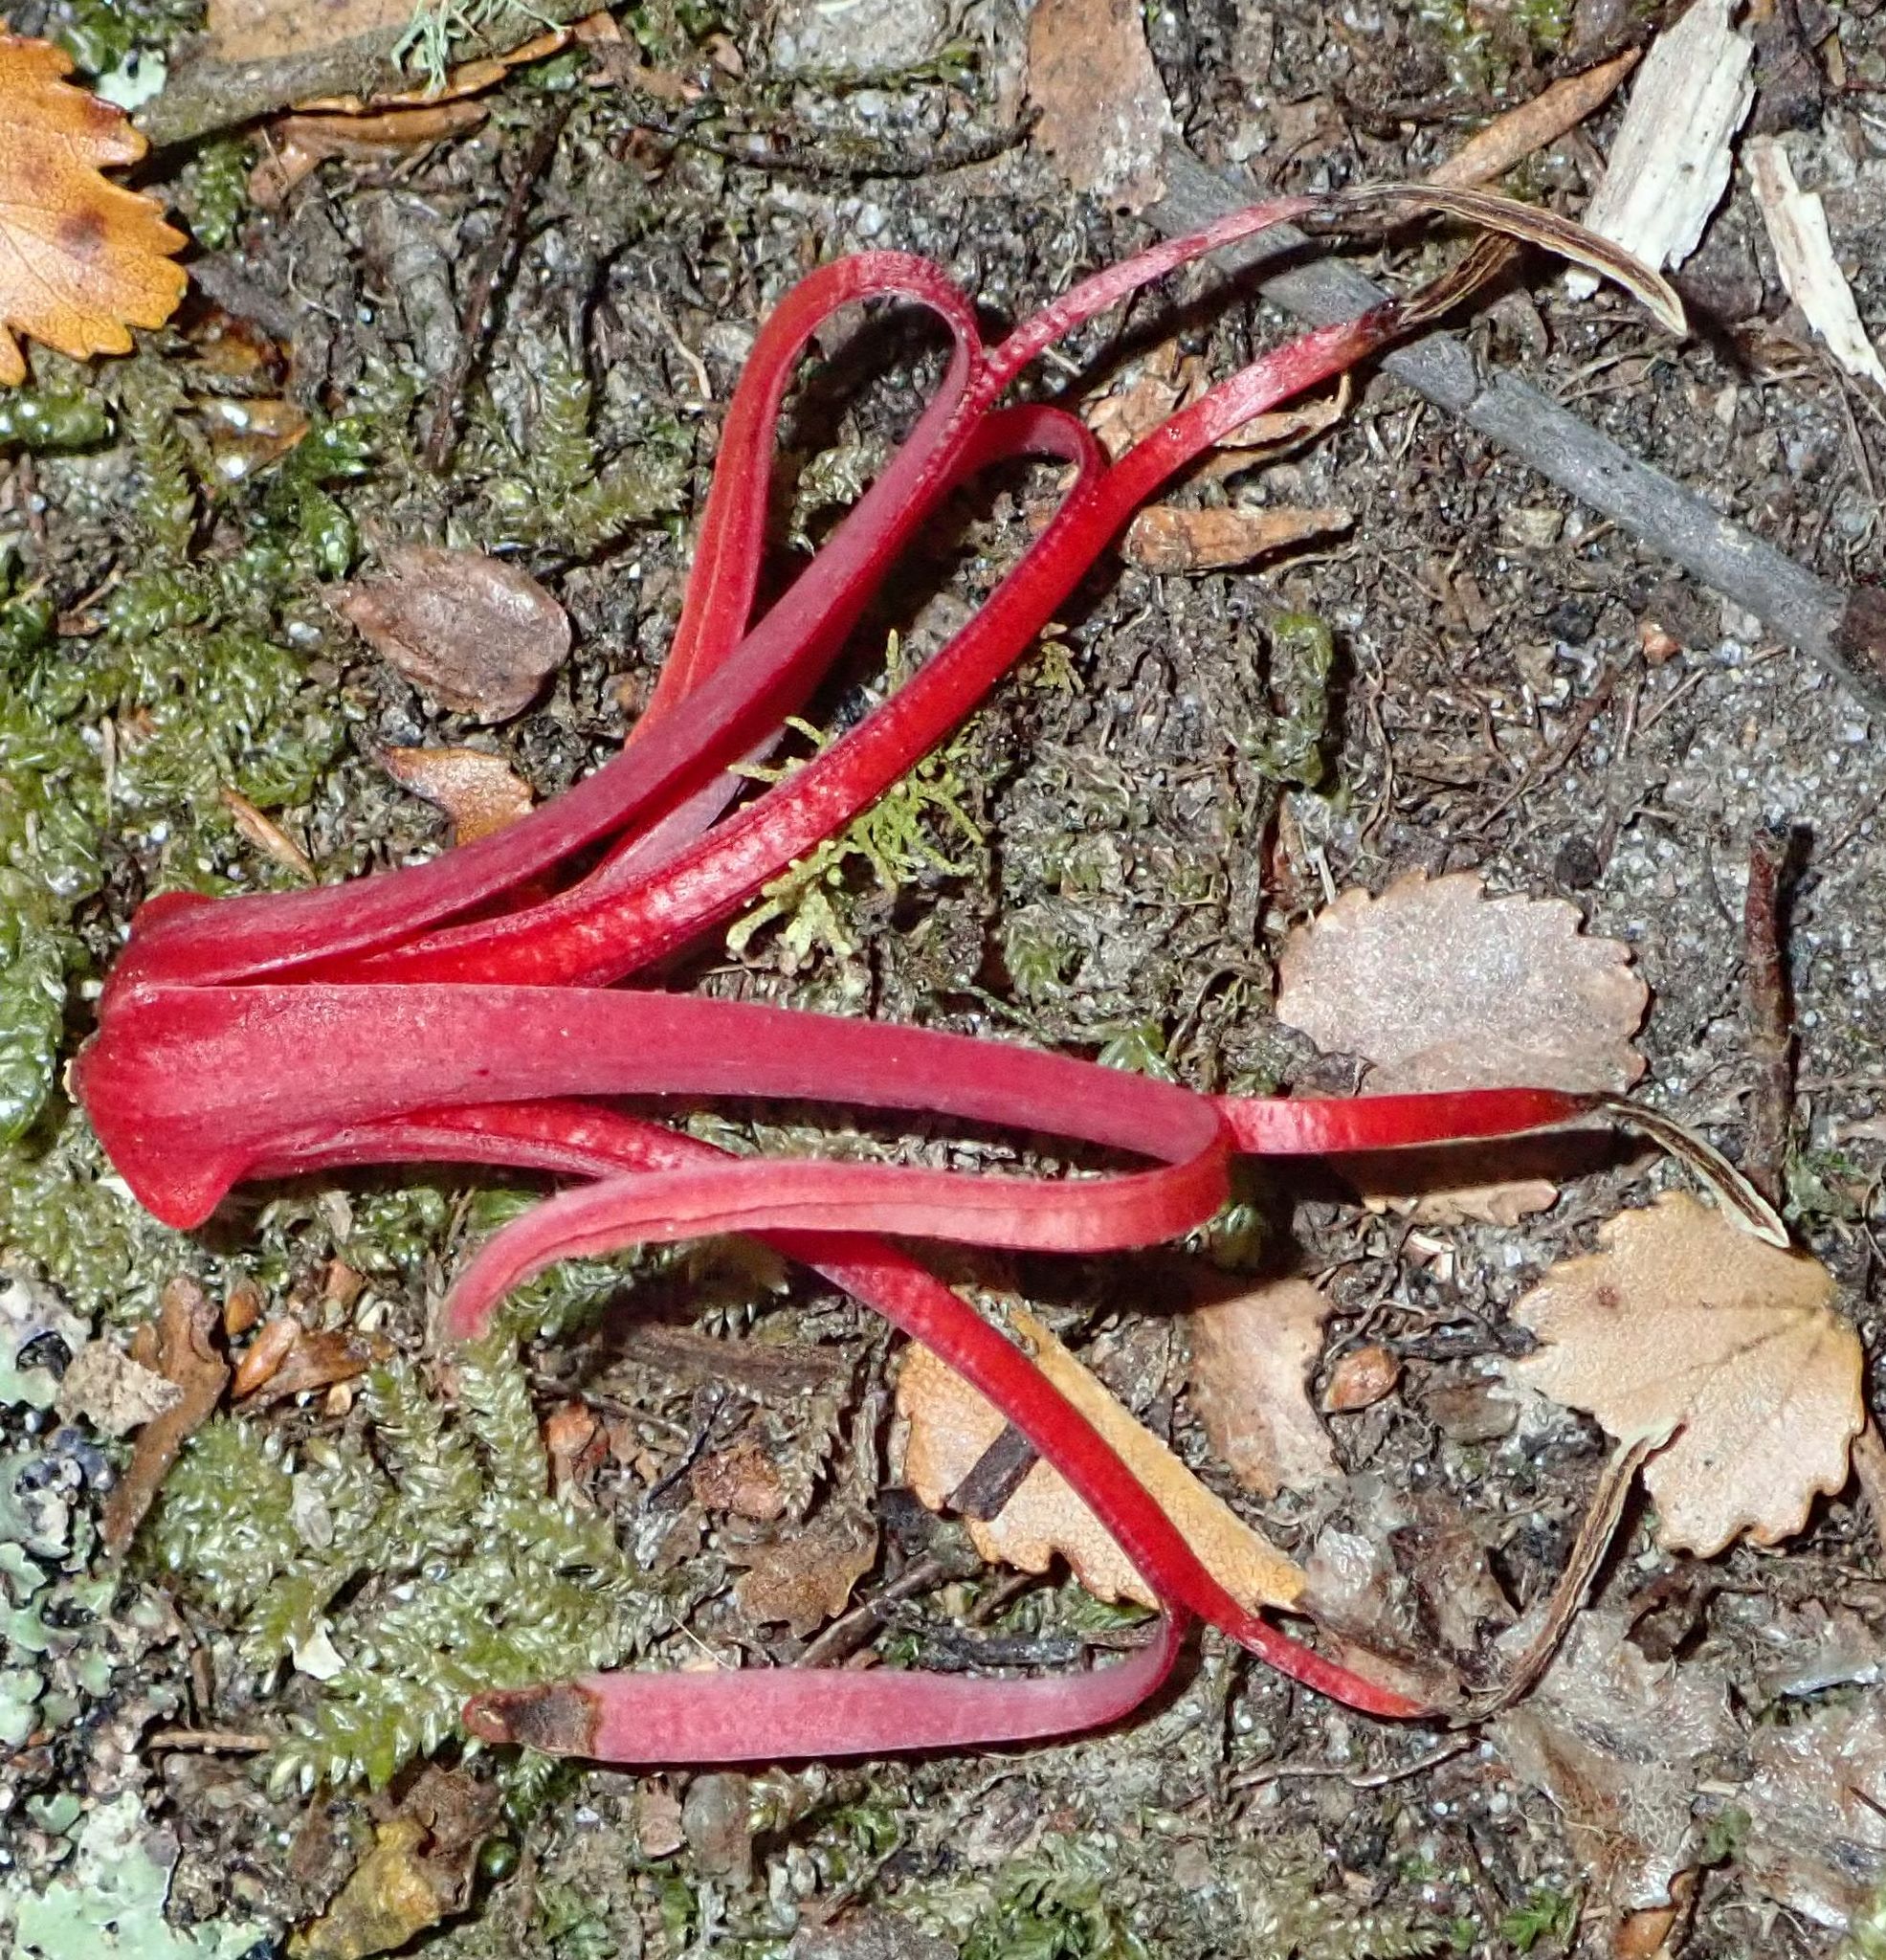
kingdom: Plantae
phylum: Tracheophyta
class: Magnoliopsida
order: Santalales
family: Loranthaceae
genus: Peraxilla
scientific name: Peraxilla colensoi
